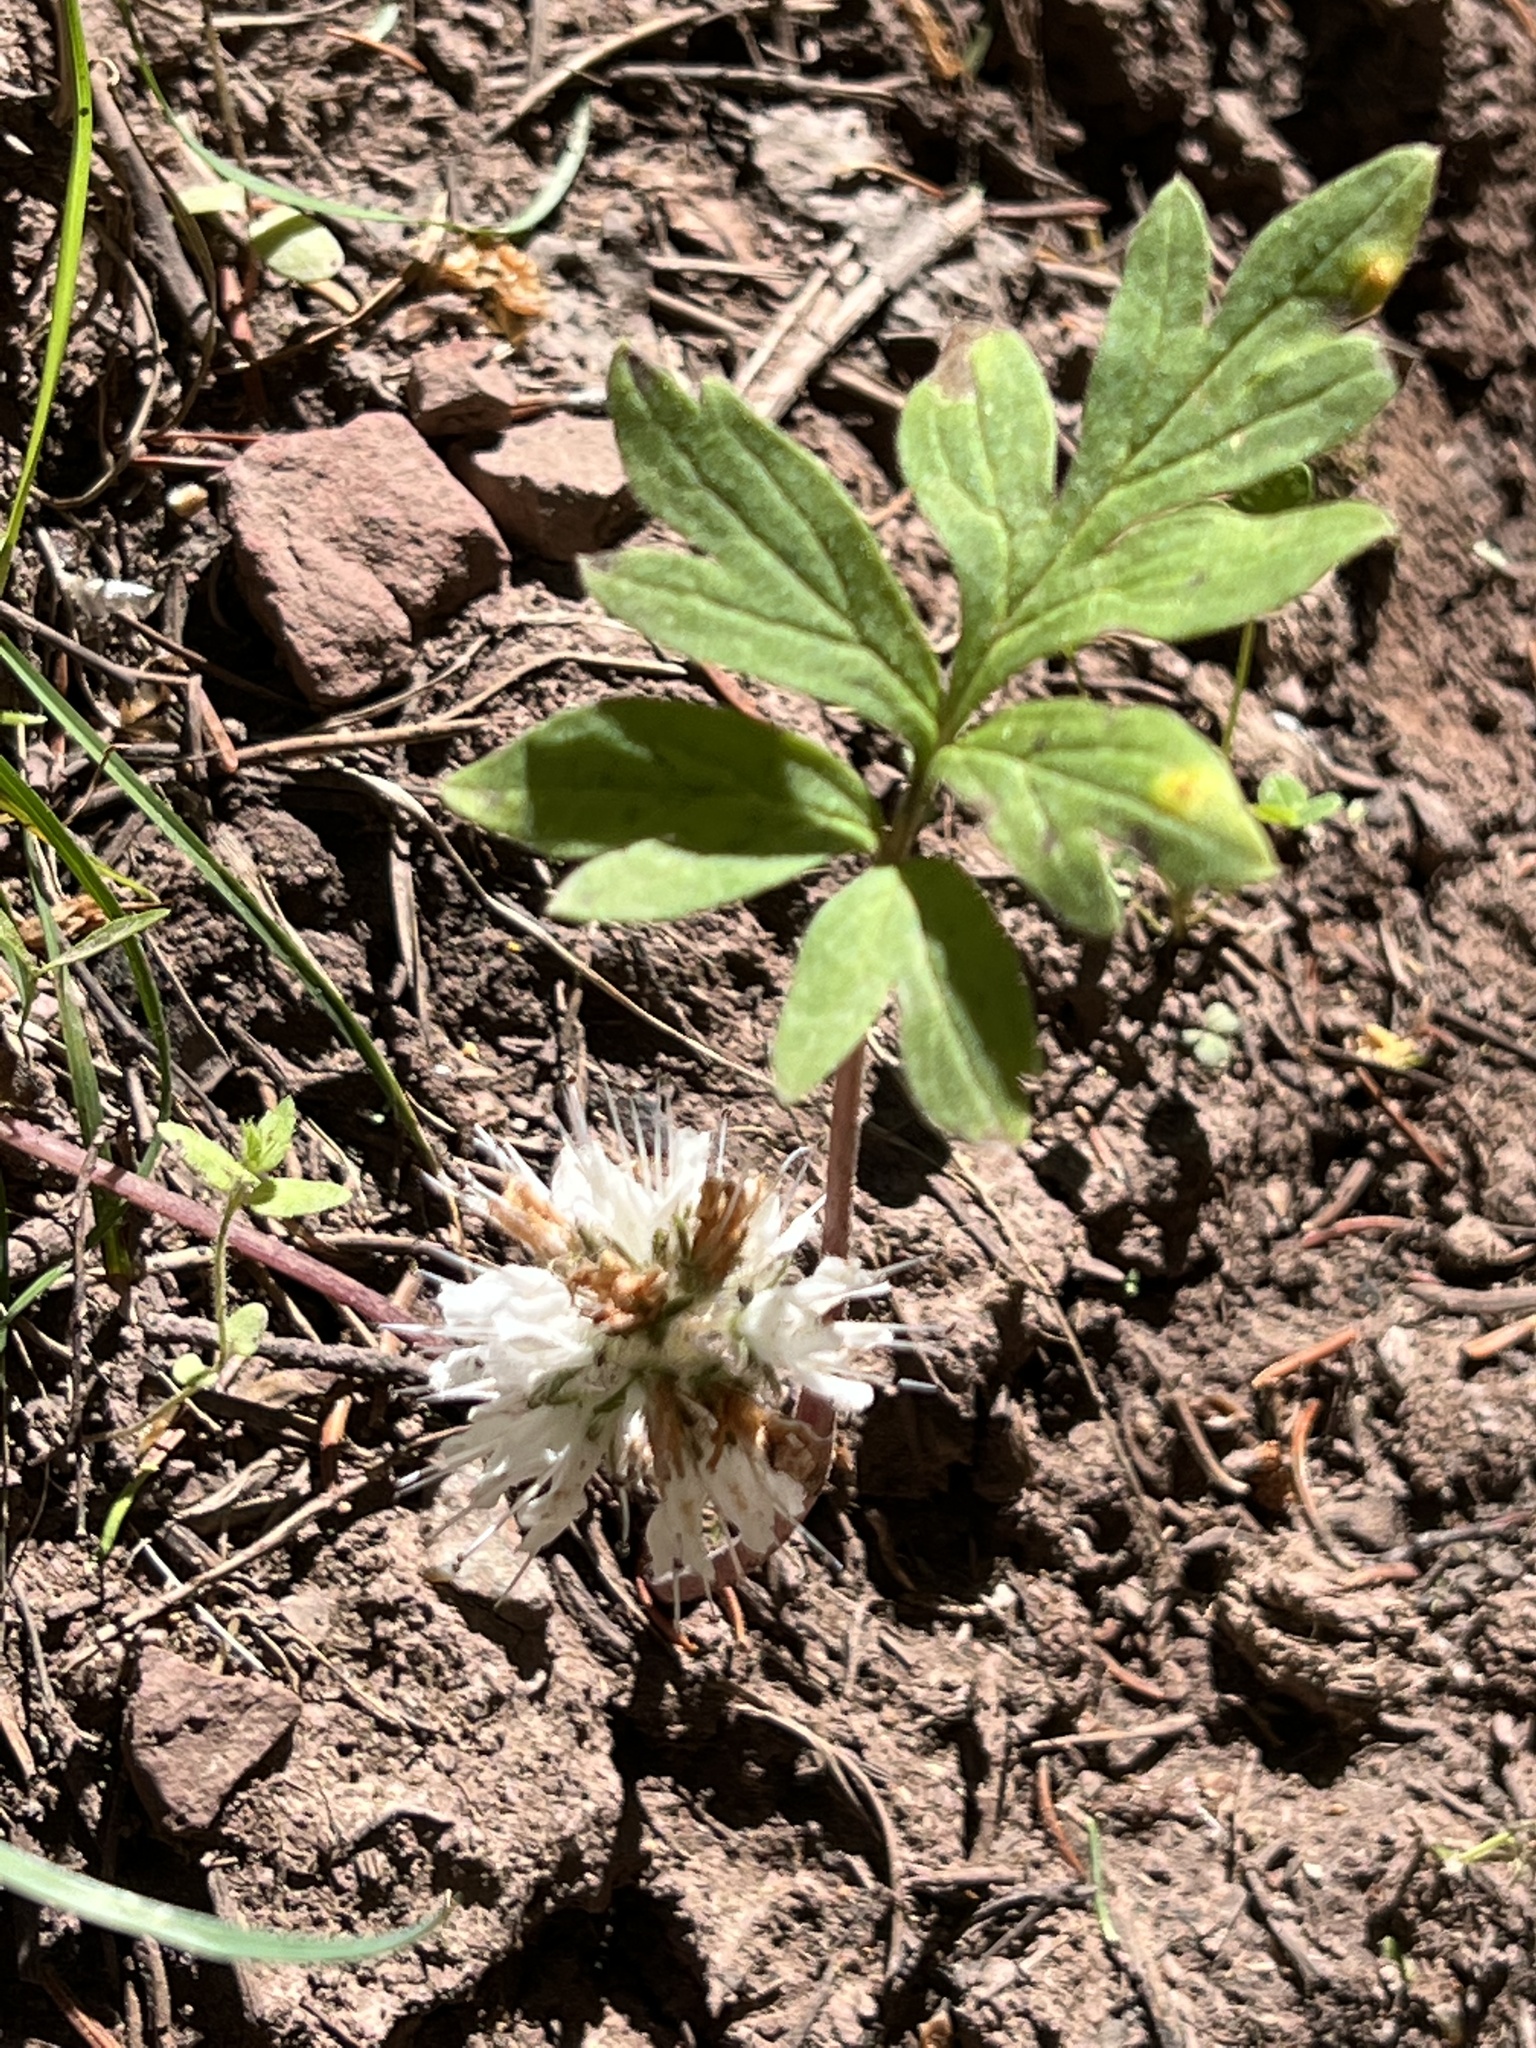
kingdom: Plantae
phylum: Tracheophyta
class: Magnoliopsida
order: Boraginales
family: Hydrophyllaceae
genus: Hydrophyllum
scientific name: Hydrophyllum capitatum
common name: Woollen-breeches
